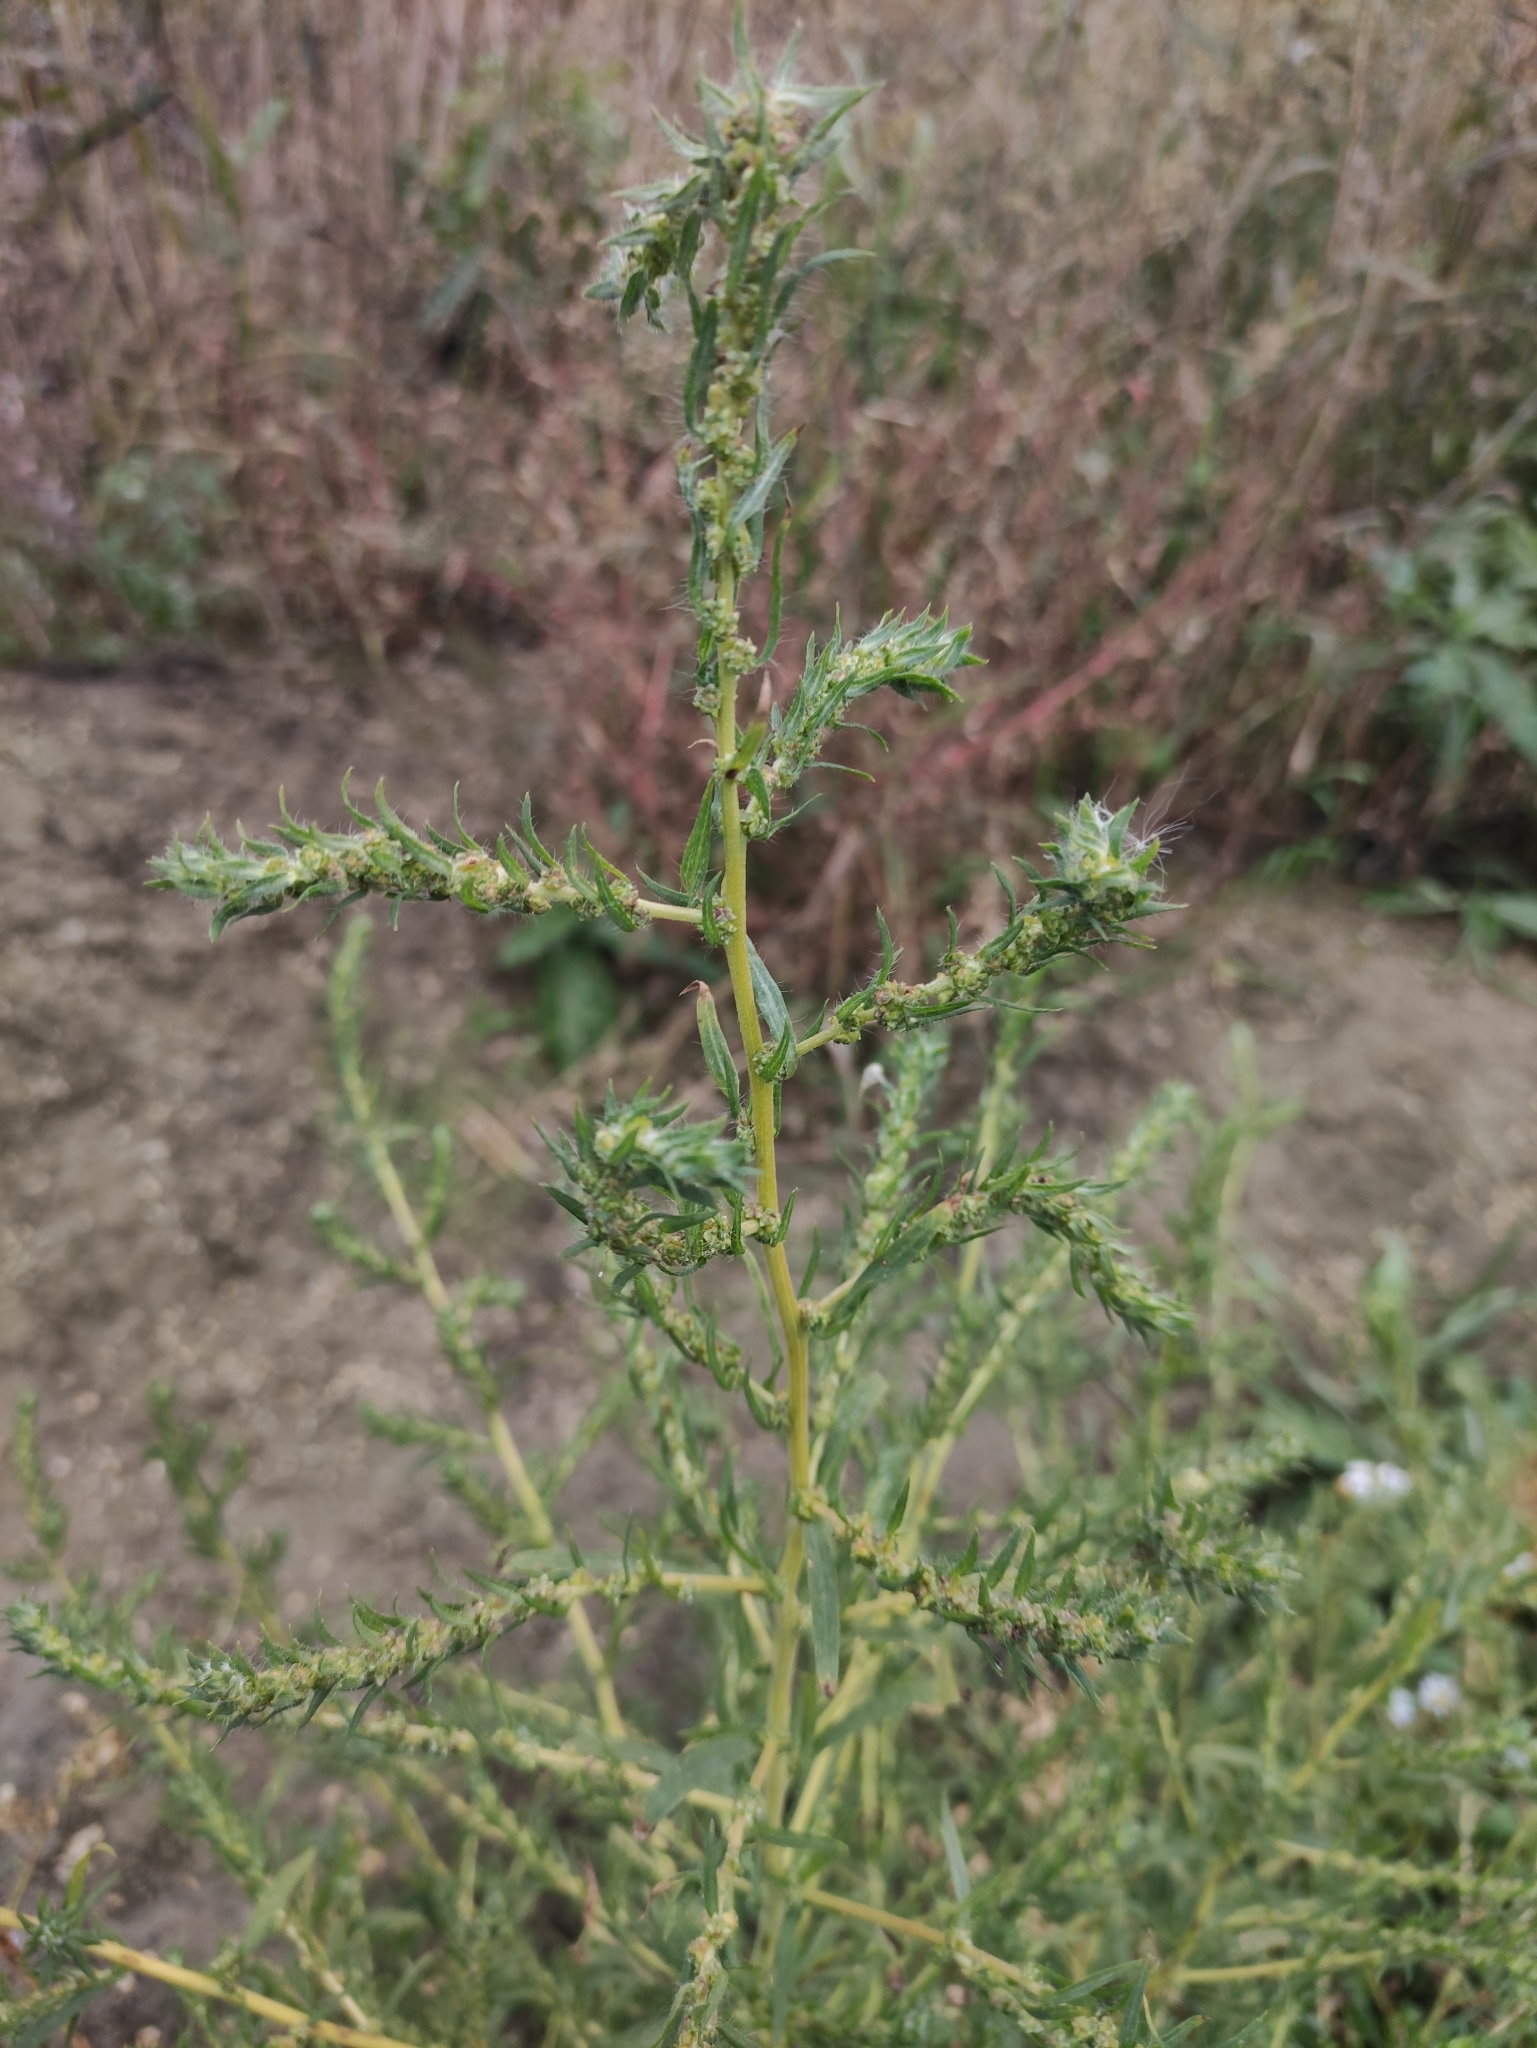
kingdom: Plantae
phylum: Tracheophyta
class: Magnoliopsida
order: Caryophyllales
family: Amaranthaceae
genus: Bassia
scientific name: Bassia scoparia
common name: Belvedere
